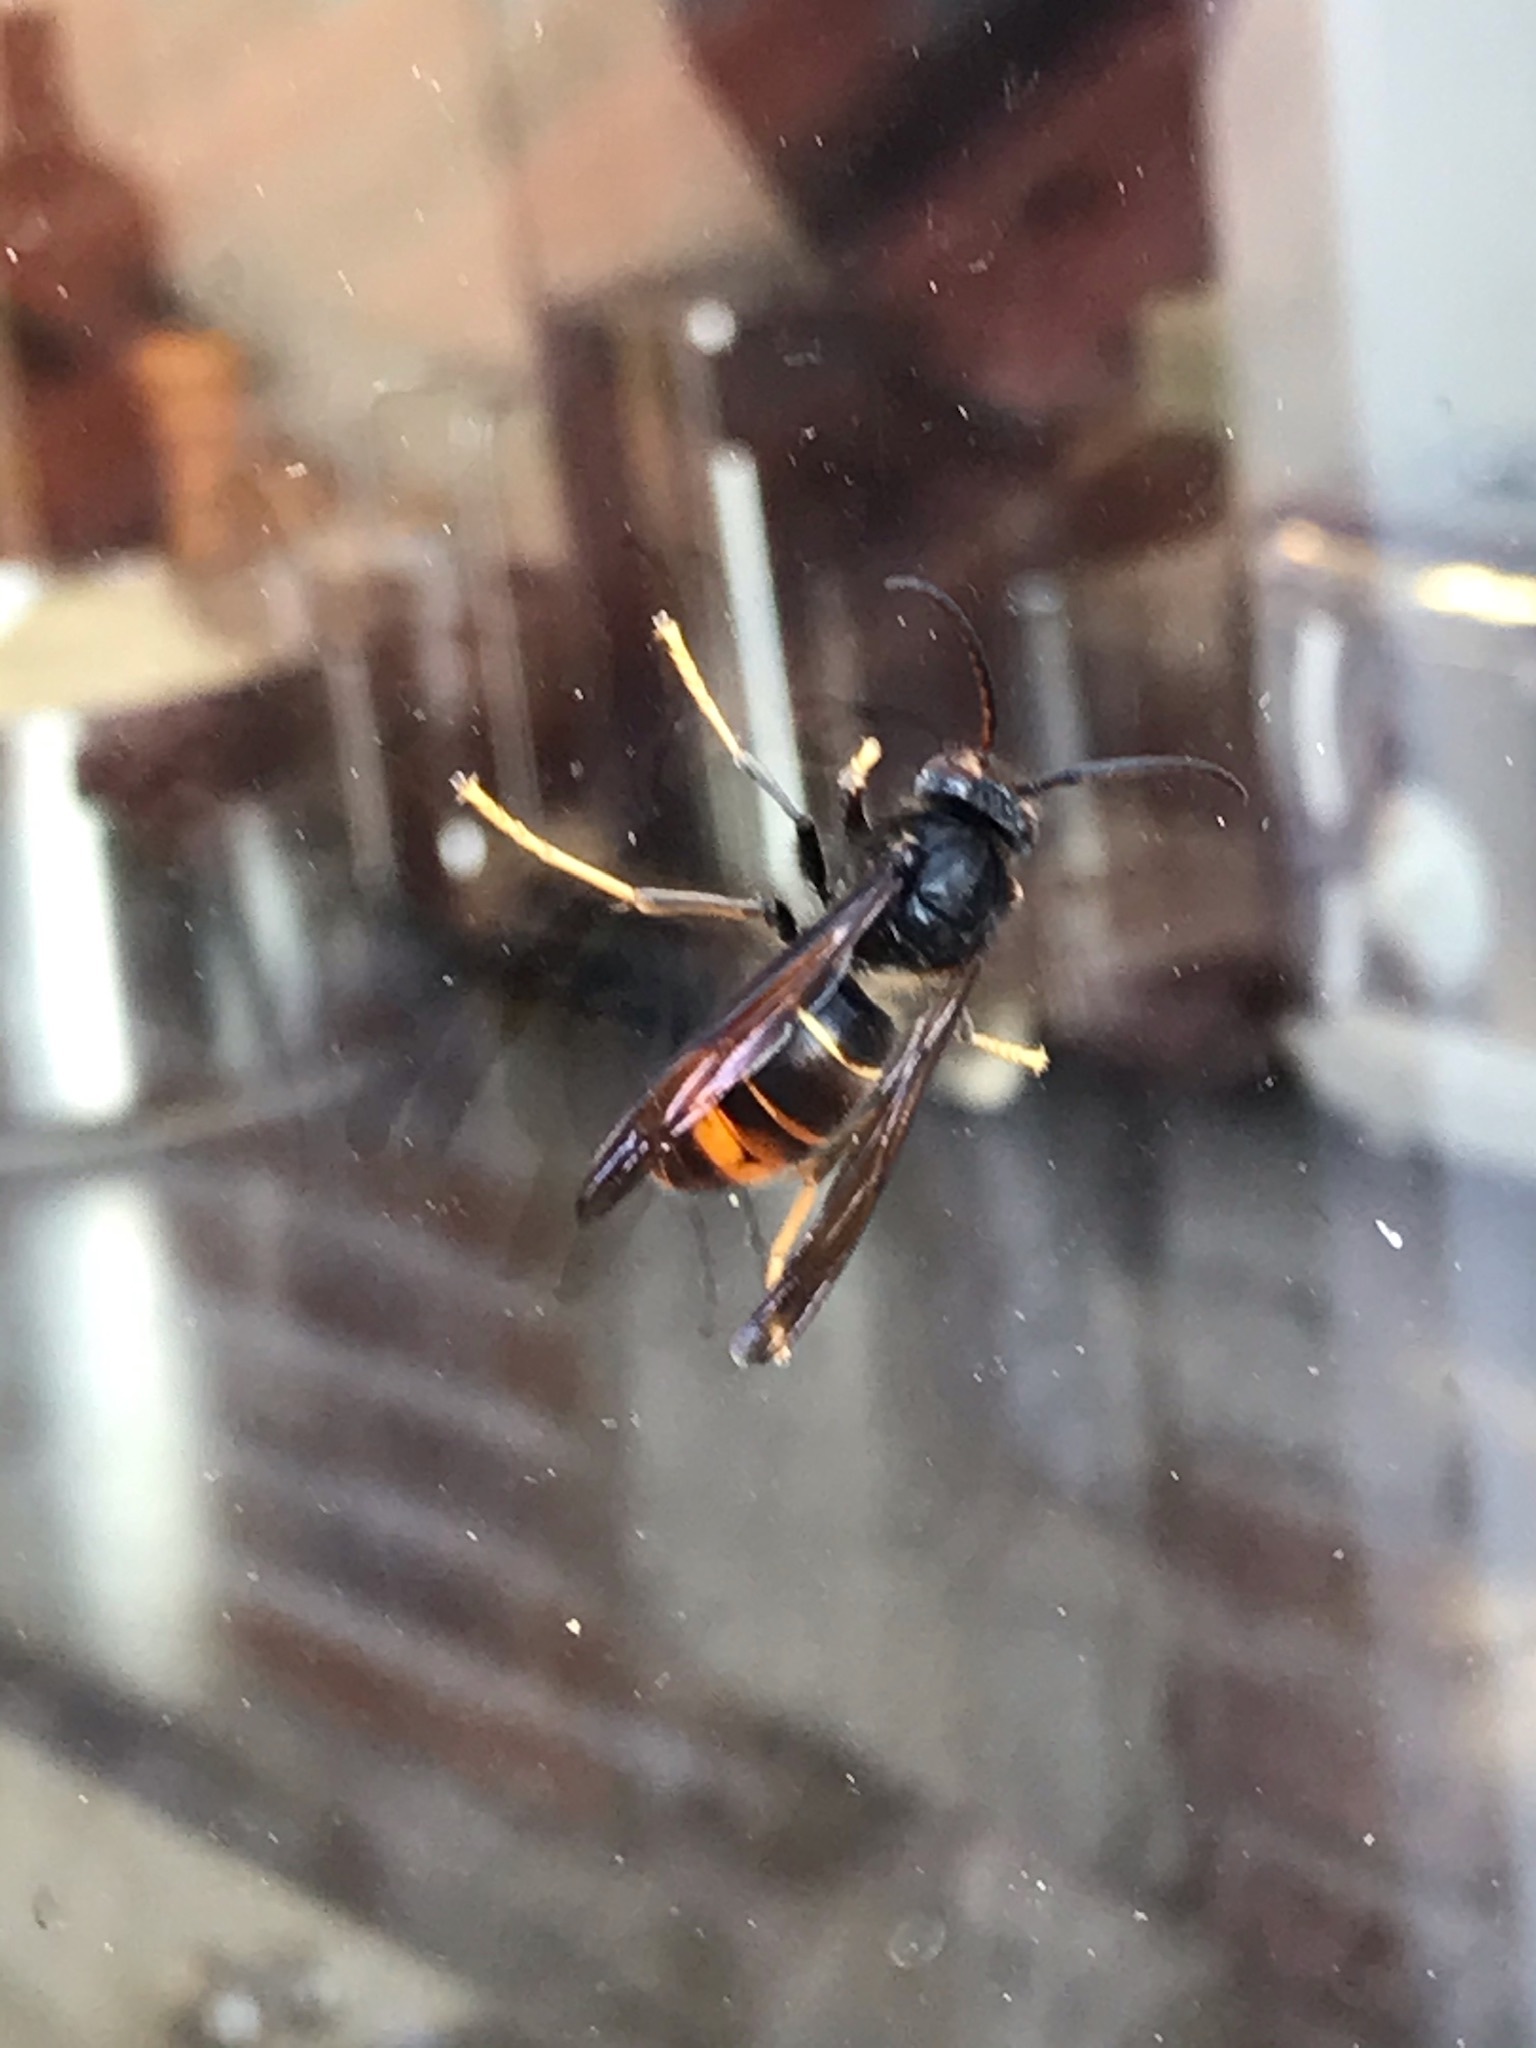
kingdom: Animalia
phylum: Arthropoda
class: Insecta
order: Hymenoptera
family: Vespidae
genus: Vespa
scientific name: Vespa velutina
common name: Asian hornet
